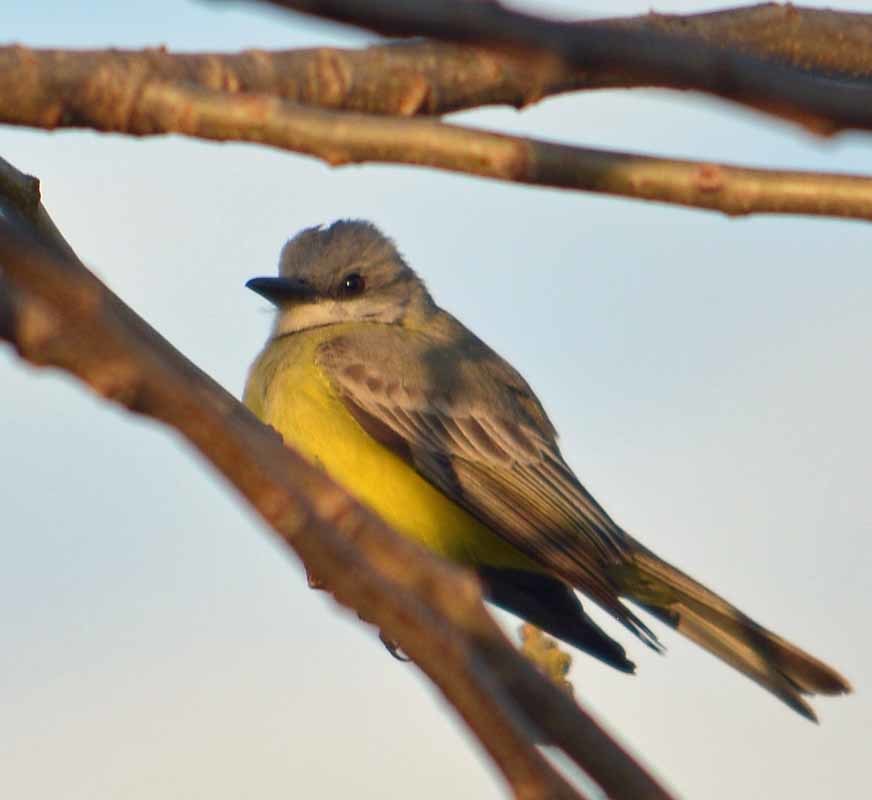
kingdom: Animalia
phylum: Chordata
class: Aves
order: Passeriformes
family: Tyrannidae
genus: Tyrannus
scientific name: Tyrannus vociferans
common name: Cassin's kingbird
